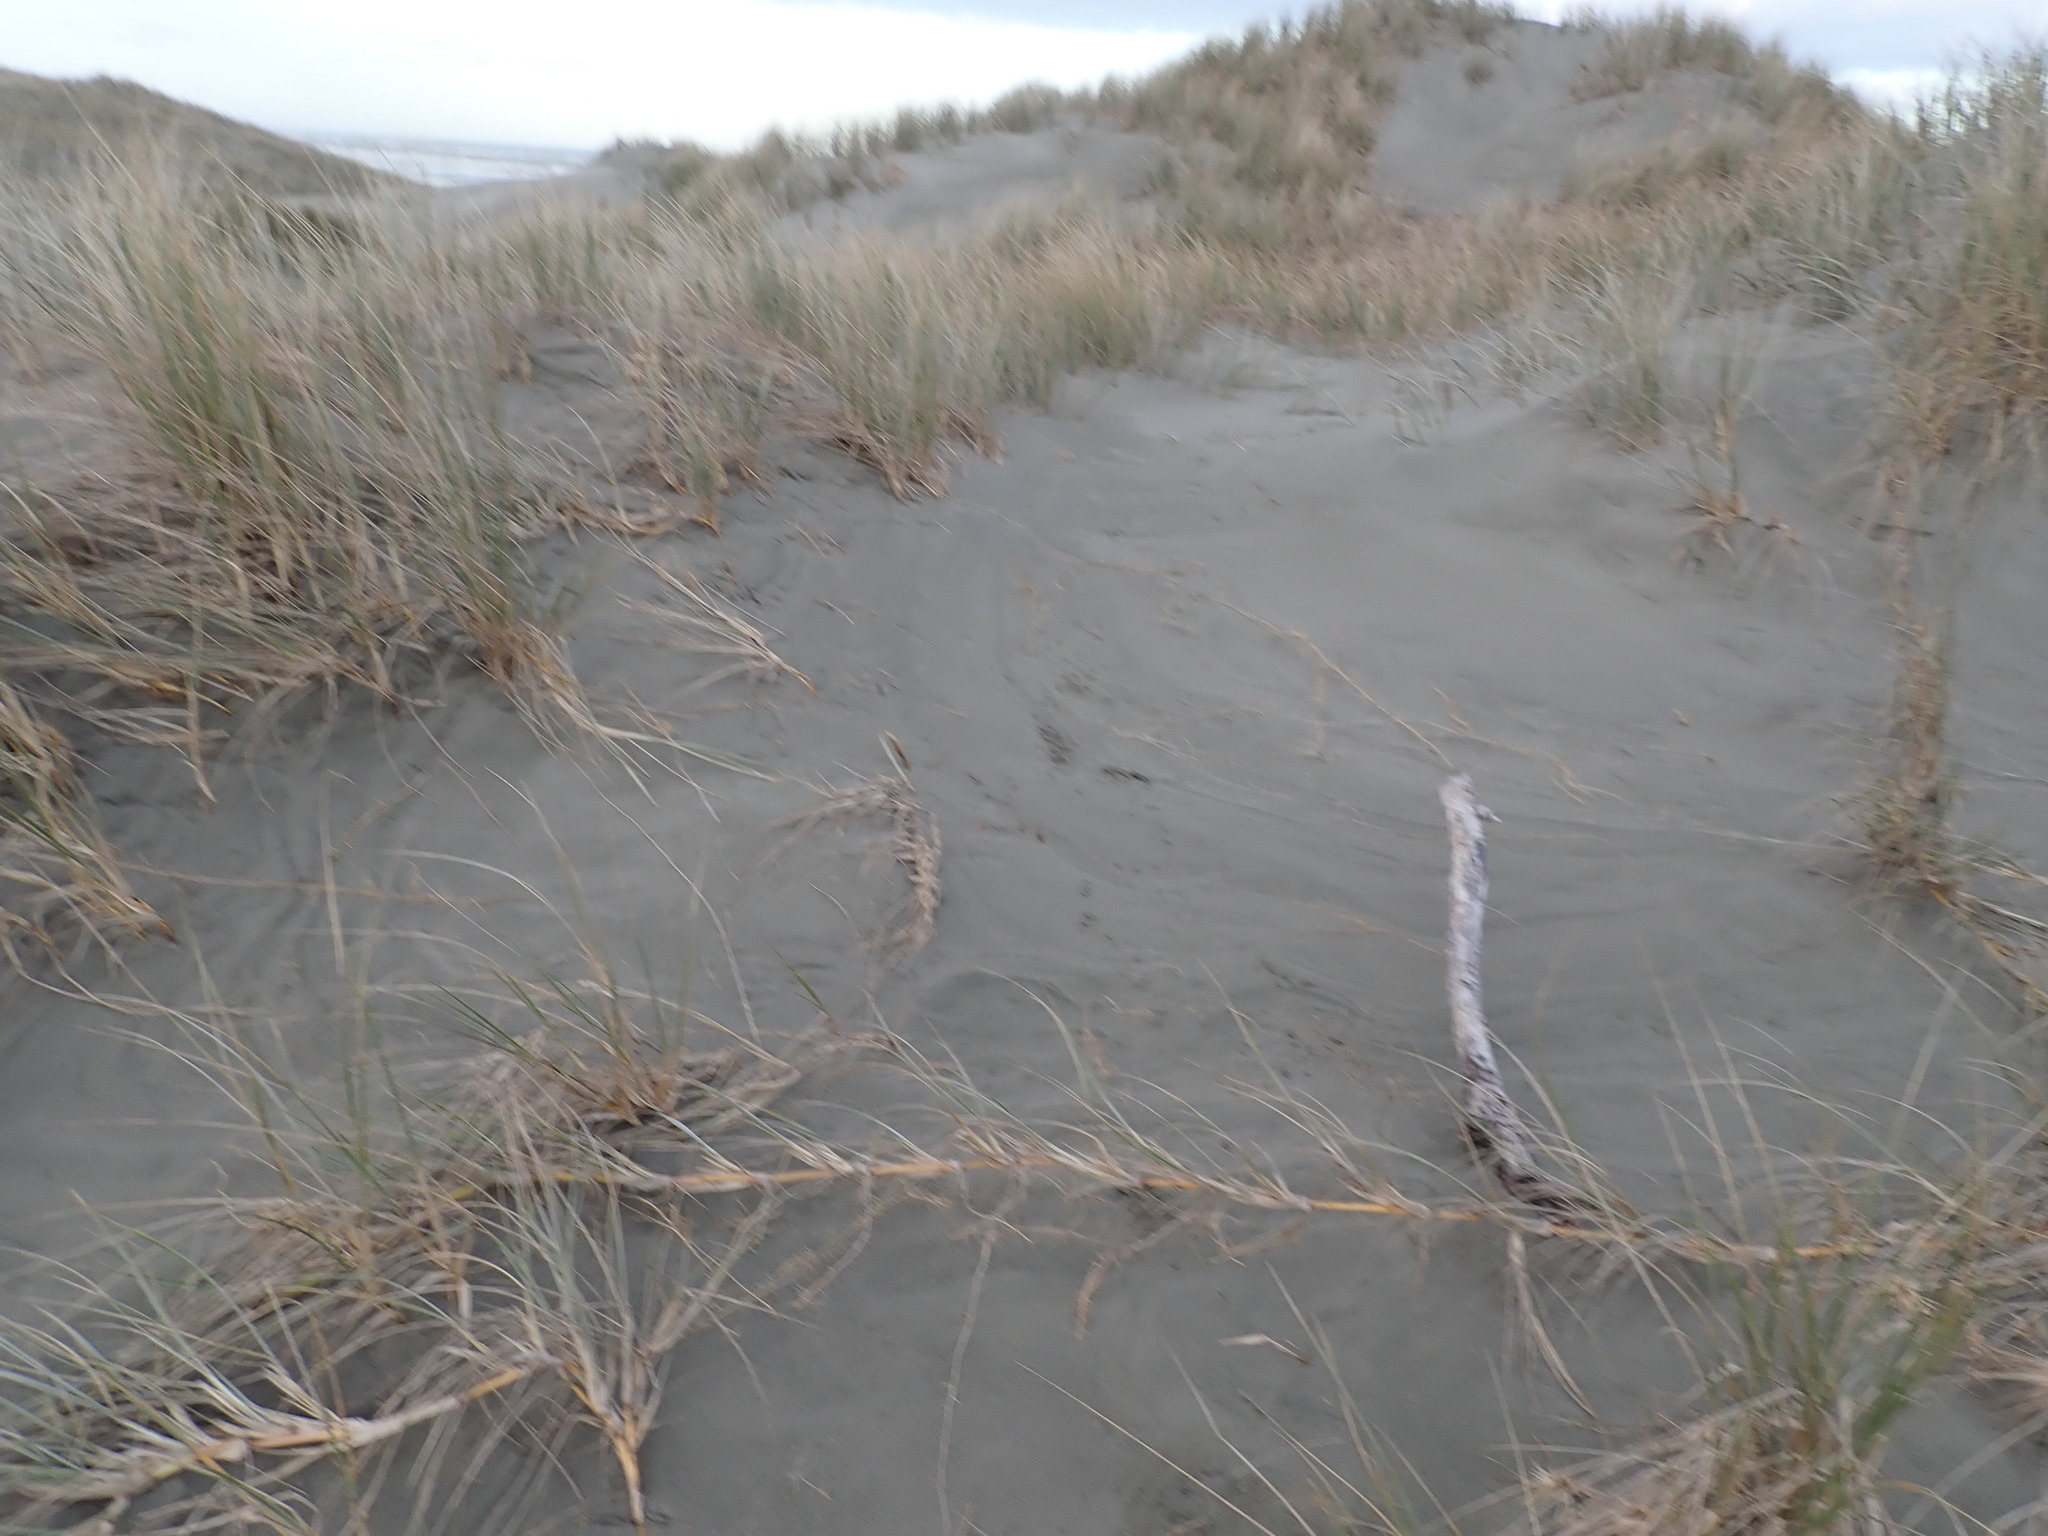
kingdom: Plantae
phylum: Tracheophyta
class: Liliopsida
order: Poales
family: Poaceae
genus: Spinifex
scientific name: Spinifex sericeus
